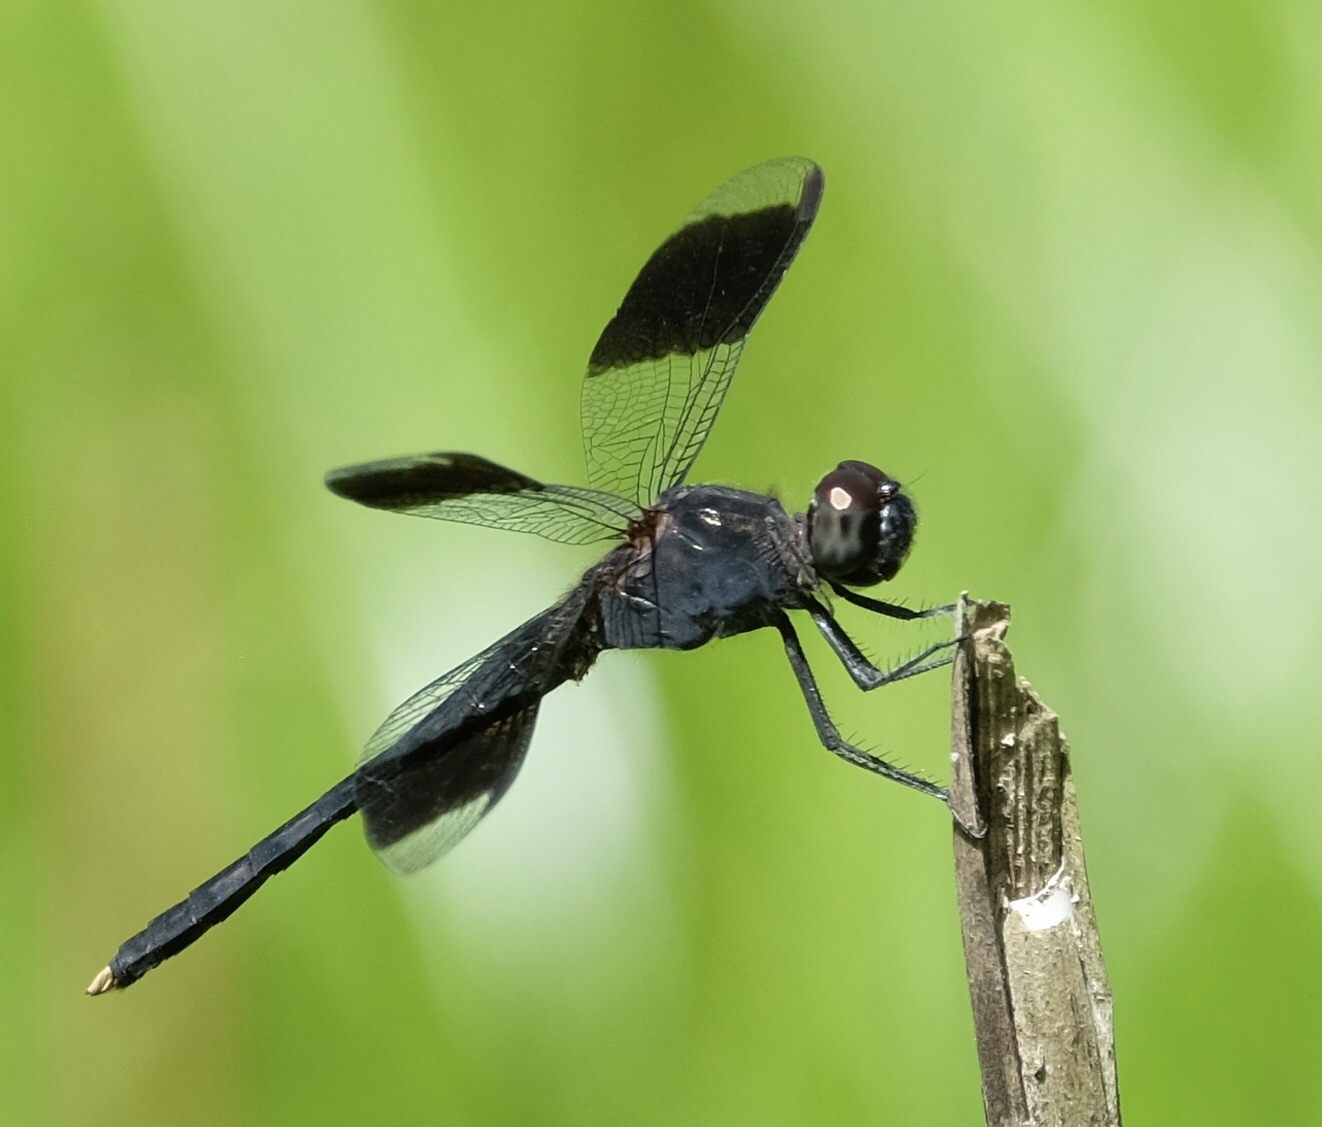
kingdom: Animalia
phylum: Arthropoda
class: Insecta
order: Odonata
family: Libellulidae
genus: Erythrodiplax
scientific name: Erythrodiplax umbrata
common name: Band-winged dragonlet
